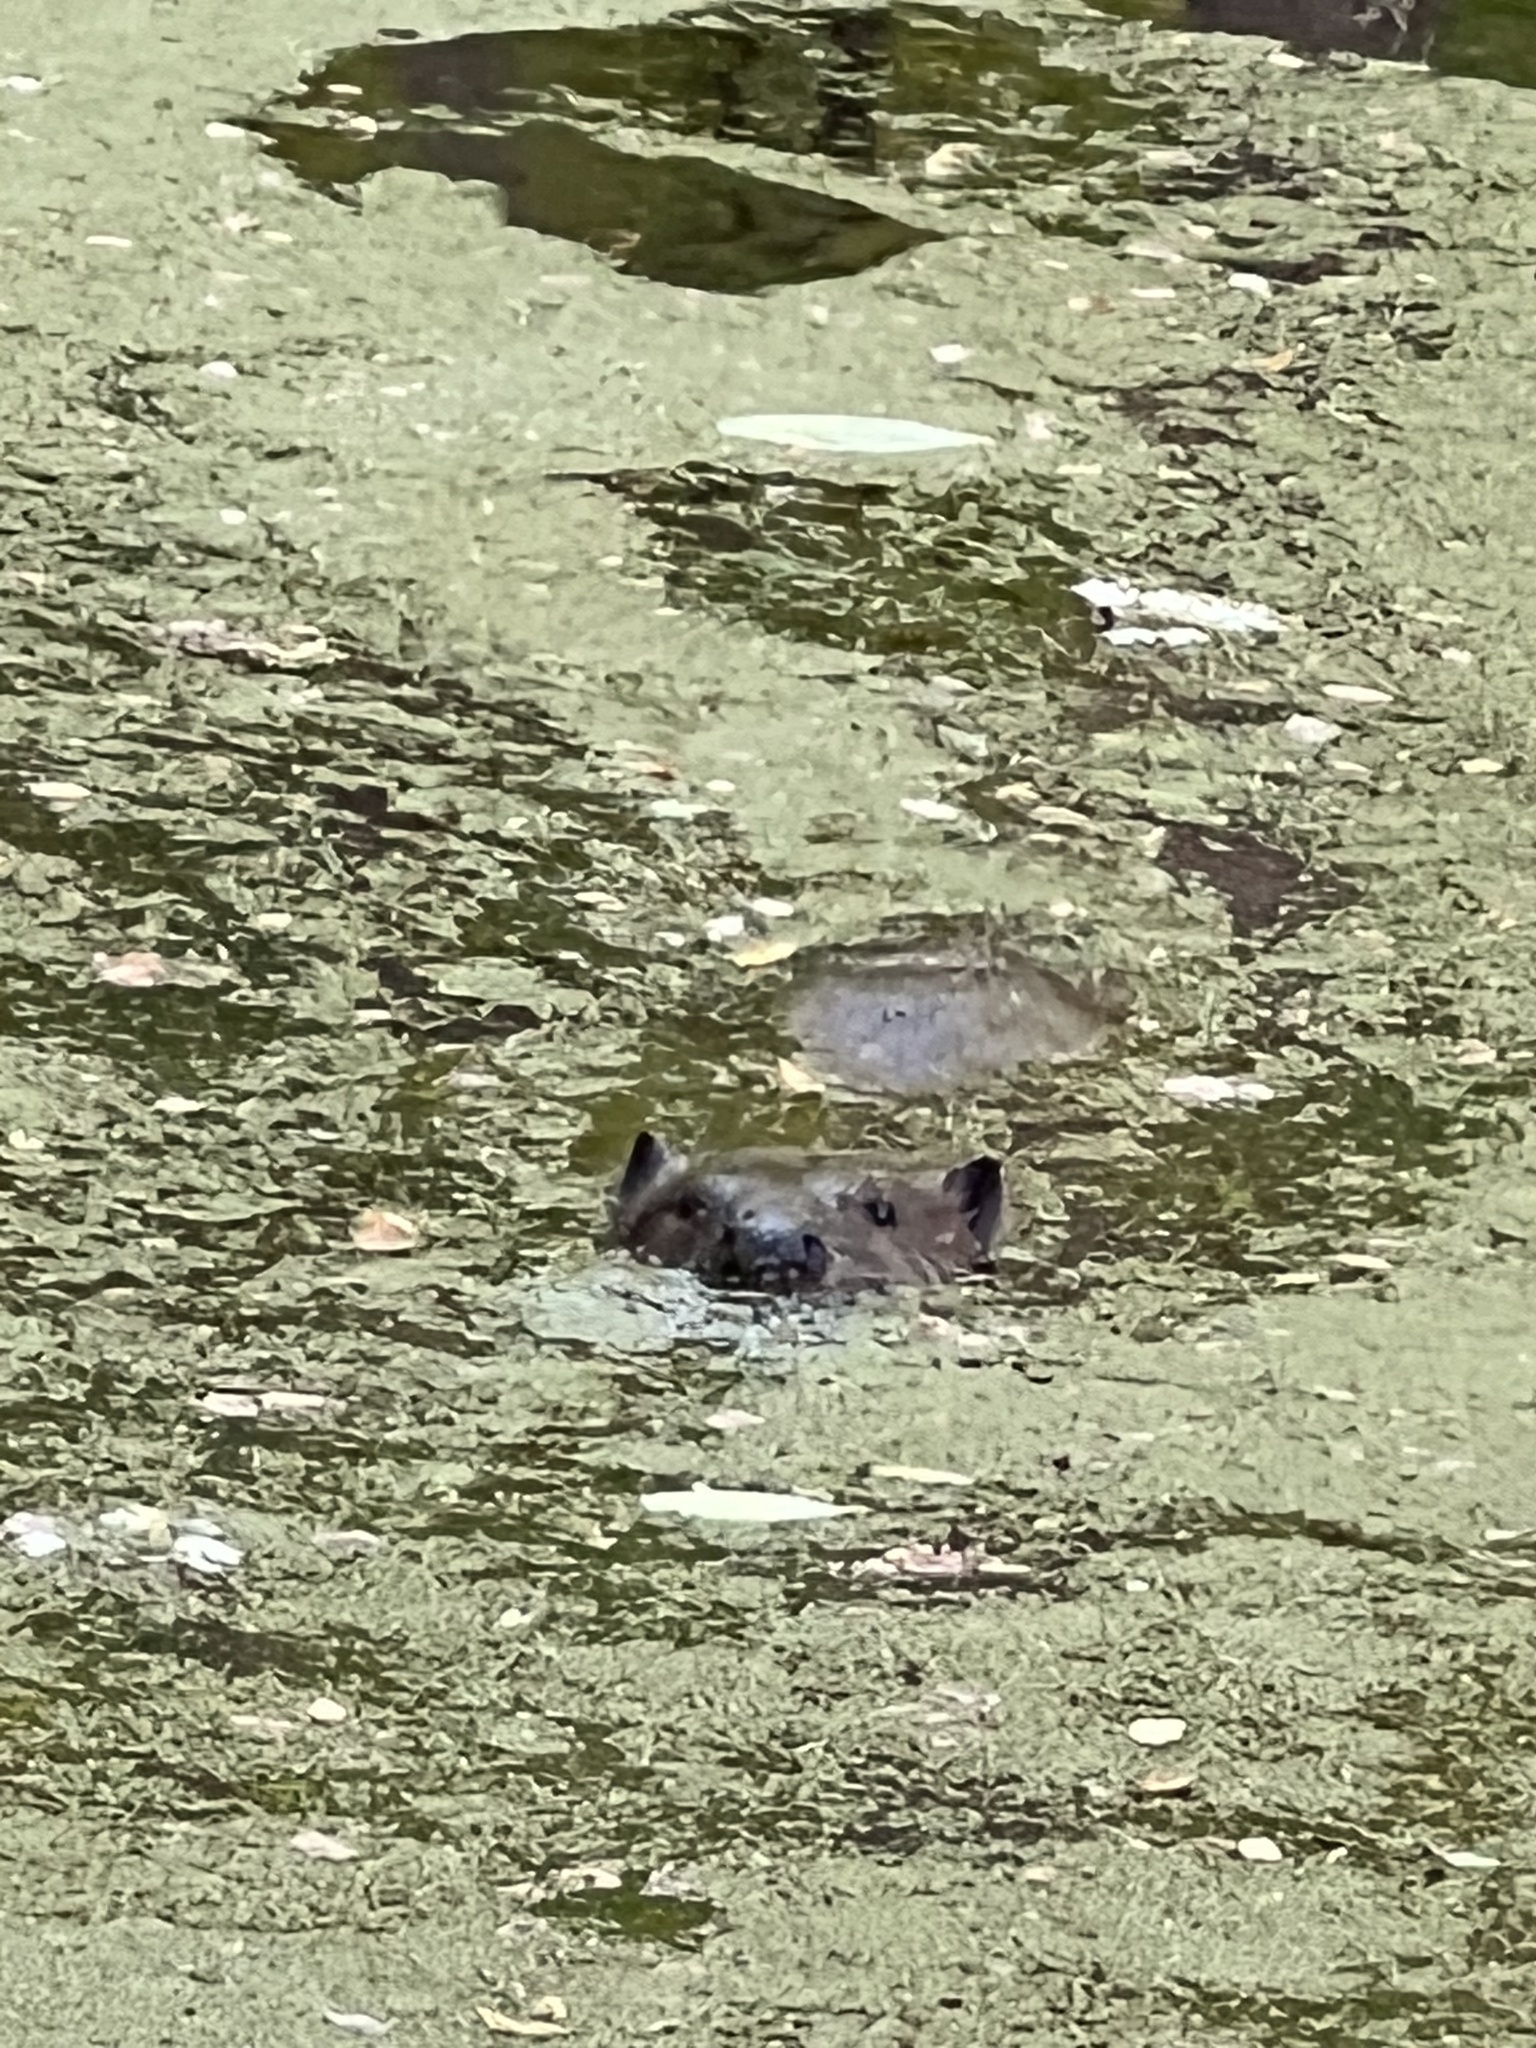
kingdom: Animalia
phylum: Chordata
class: Mammalia
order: Rodentia
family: Castoridae
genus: Castor
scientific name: Castor canadensis
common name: American beaver
